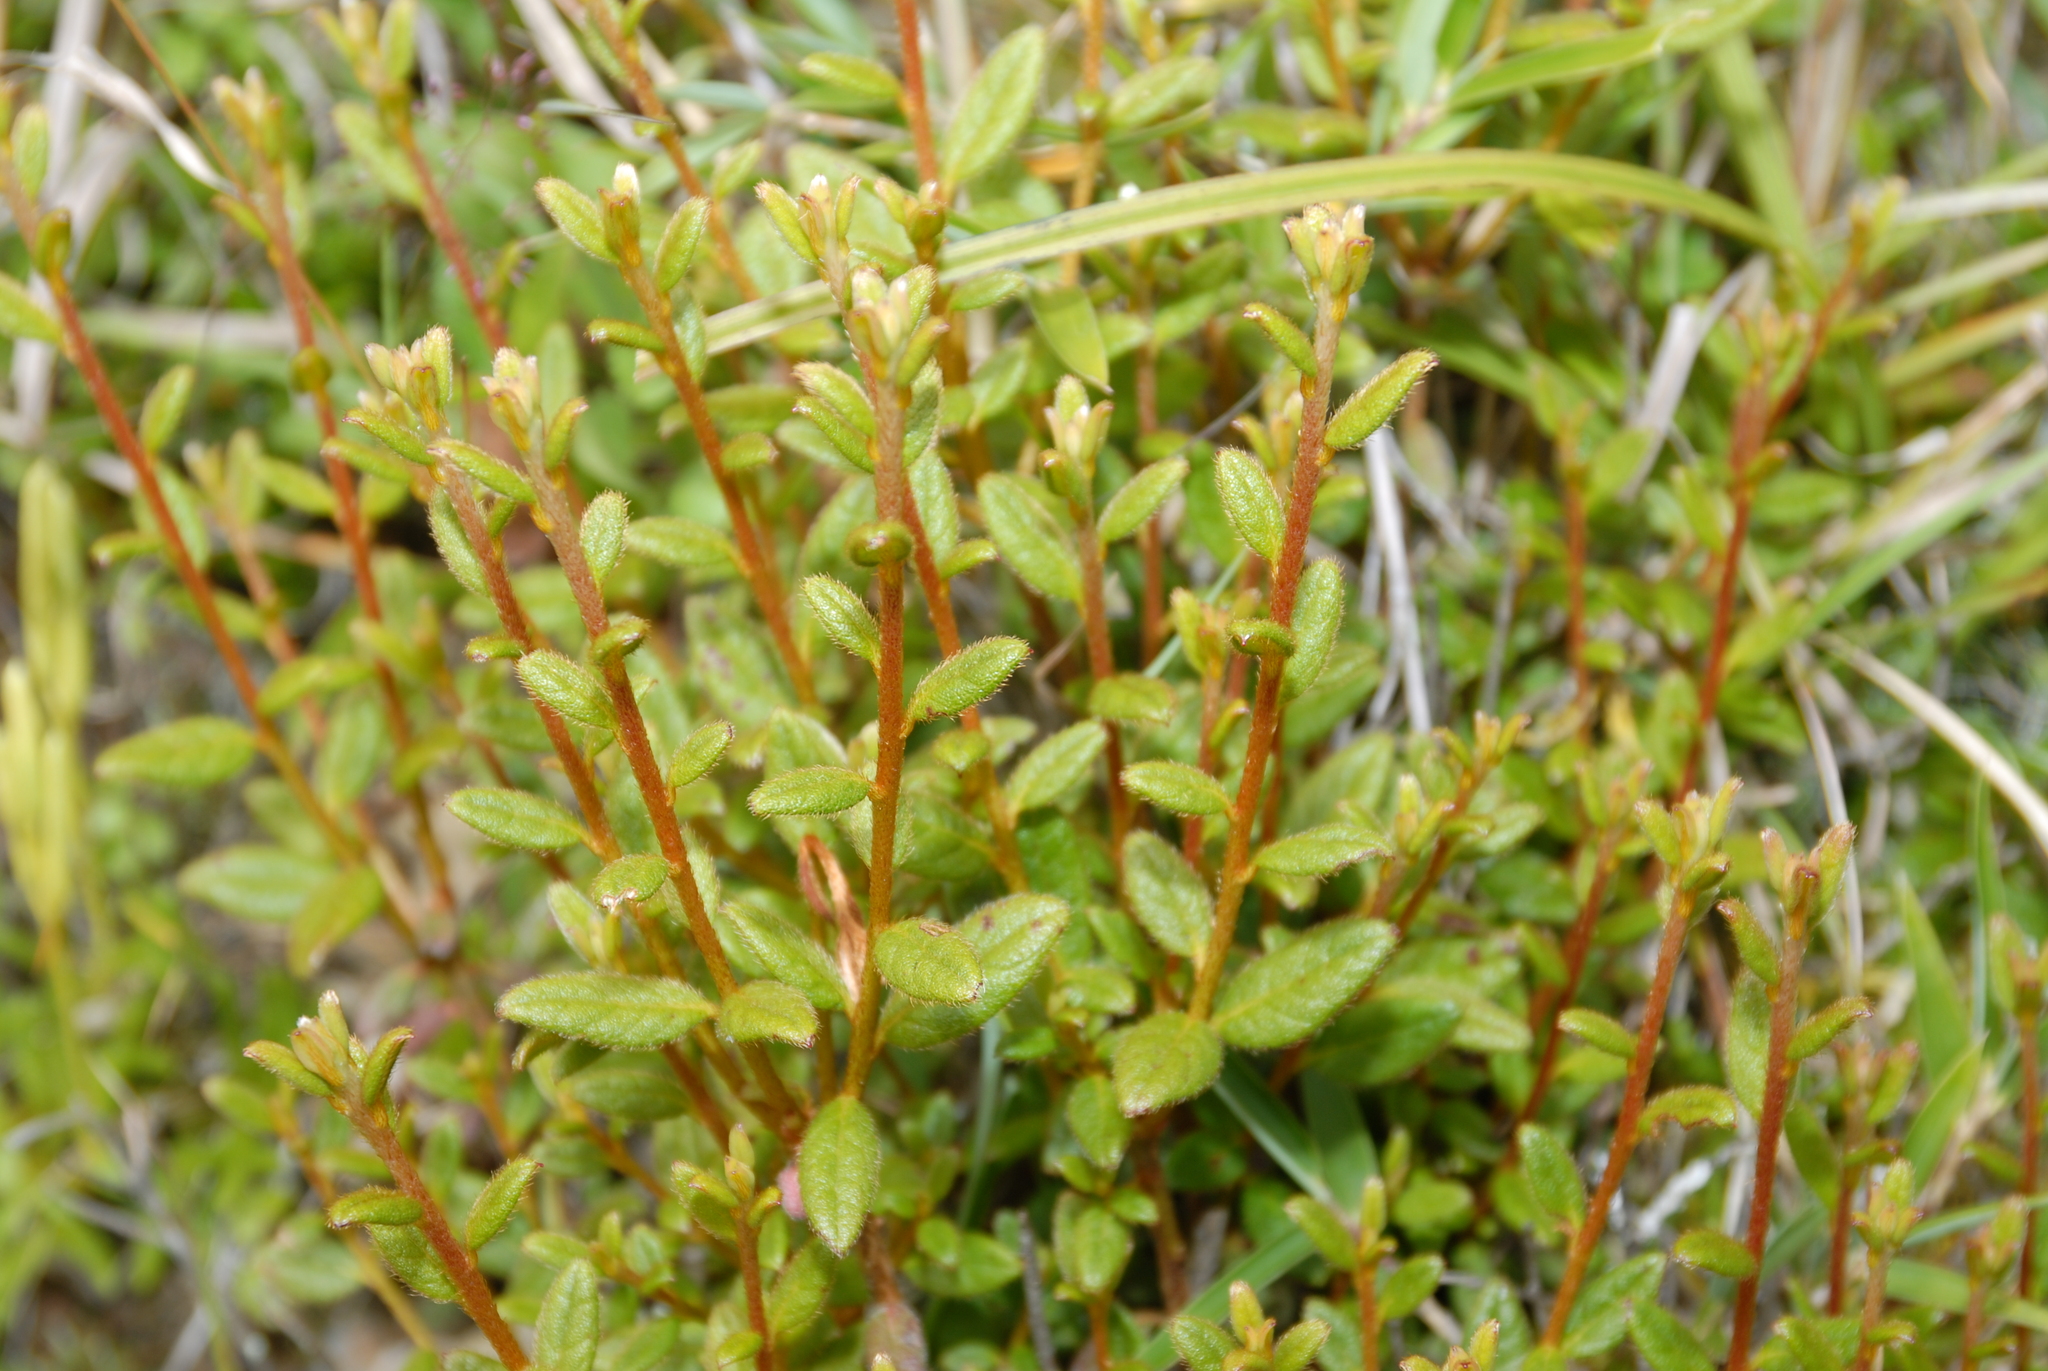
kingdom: Plantae
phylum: Tracheophyta
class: Magnoliopsida
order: Ericales
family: Ericaceae
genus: Rhododendron
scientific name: Rhododendron oldhamii
